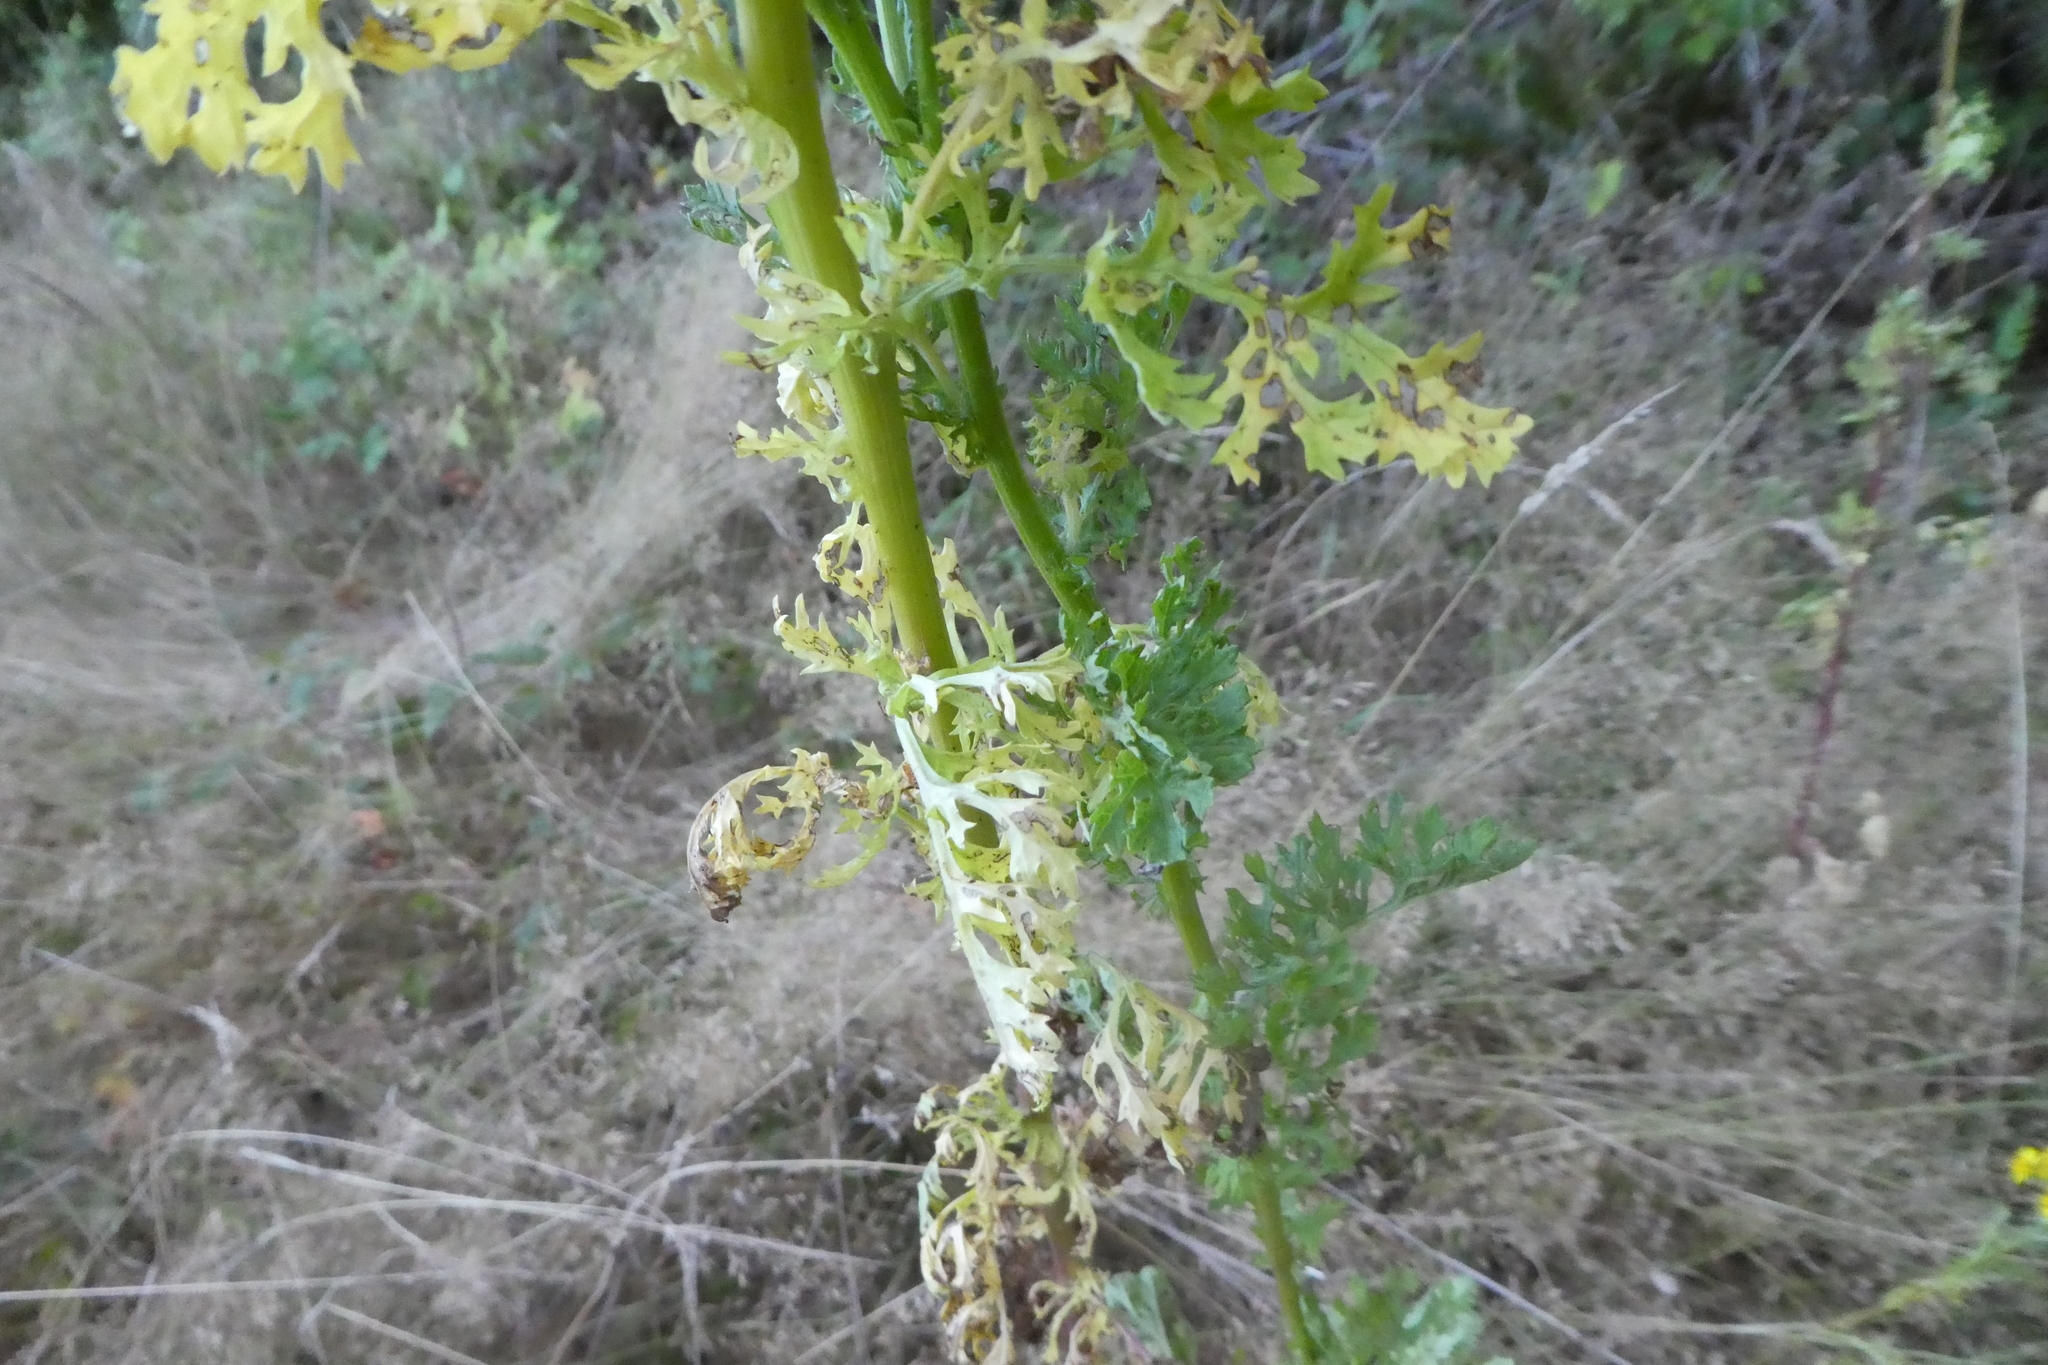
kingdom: Plantae
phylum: Tracheophyta
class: Magnoliopsida
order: Asterales
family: Asteraceae
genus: Jacobaea
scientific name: Jacobaea vulgaris
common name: Stinking willie
